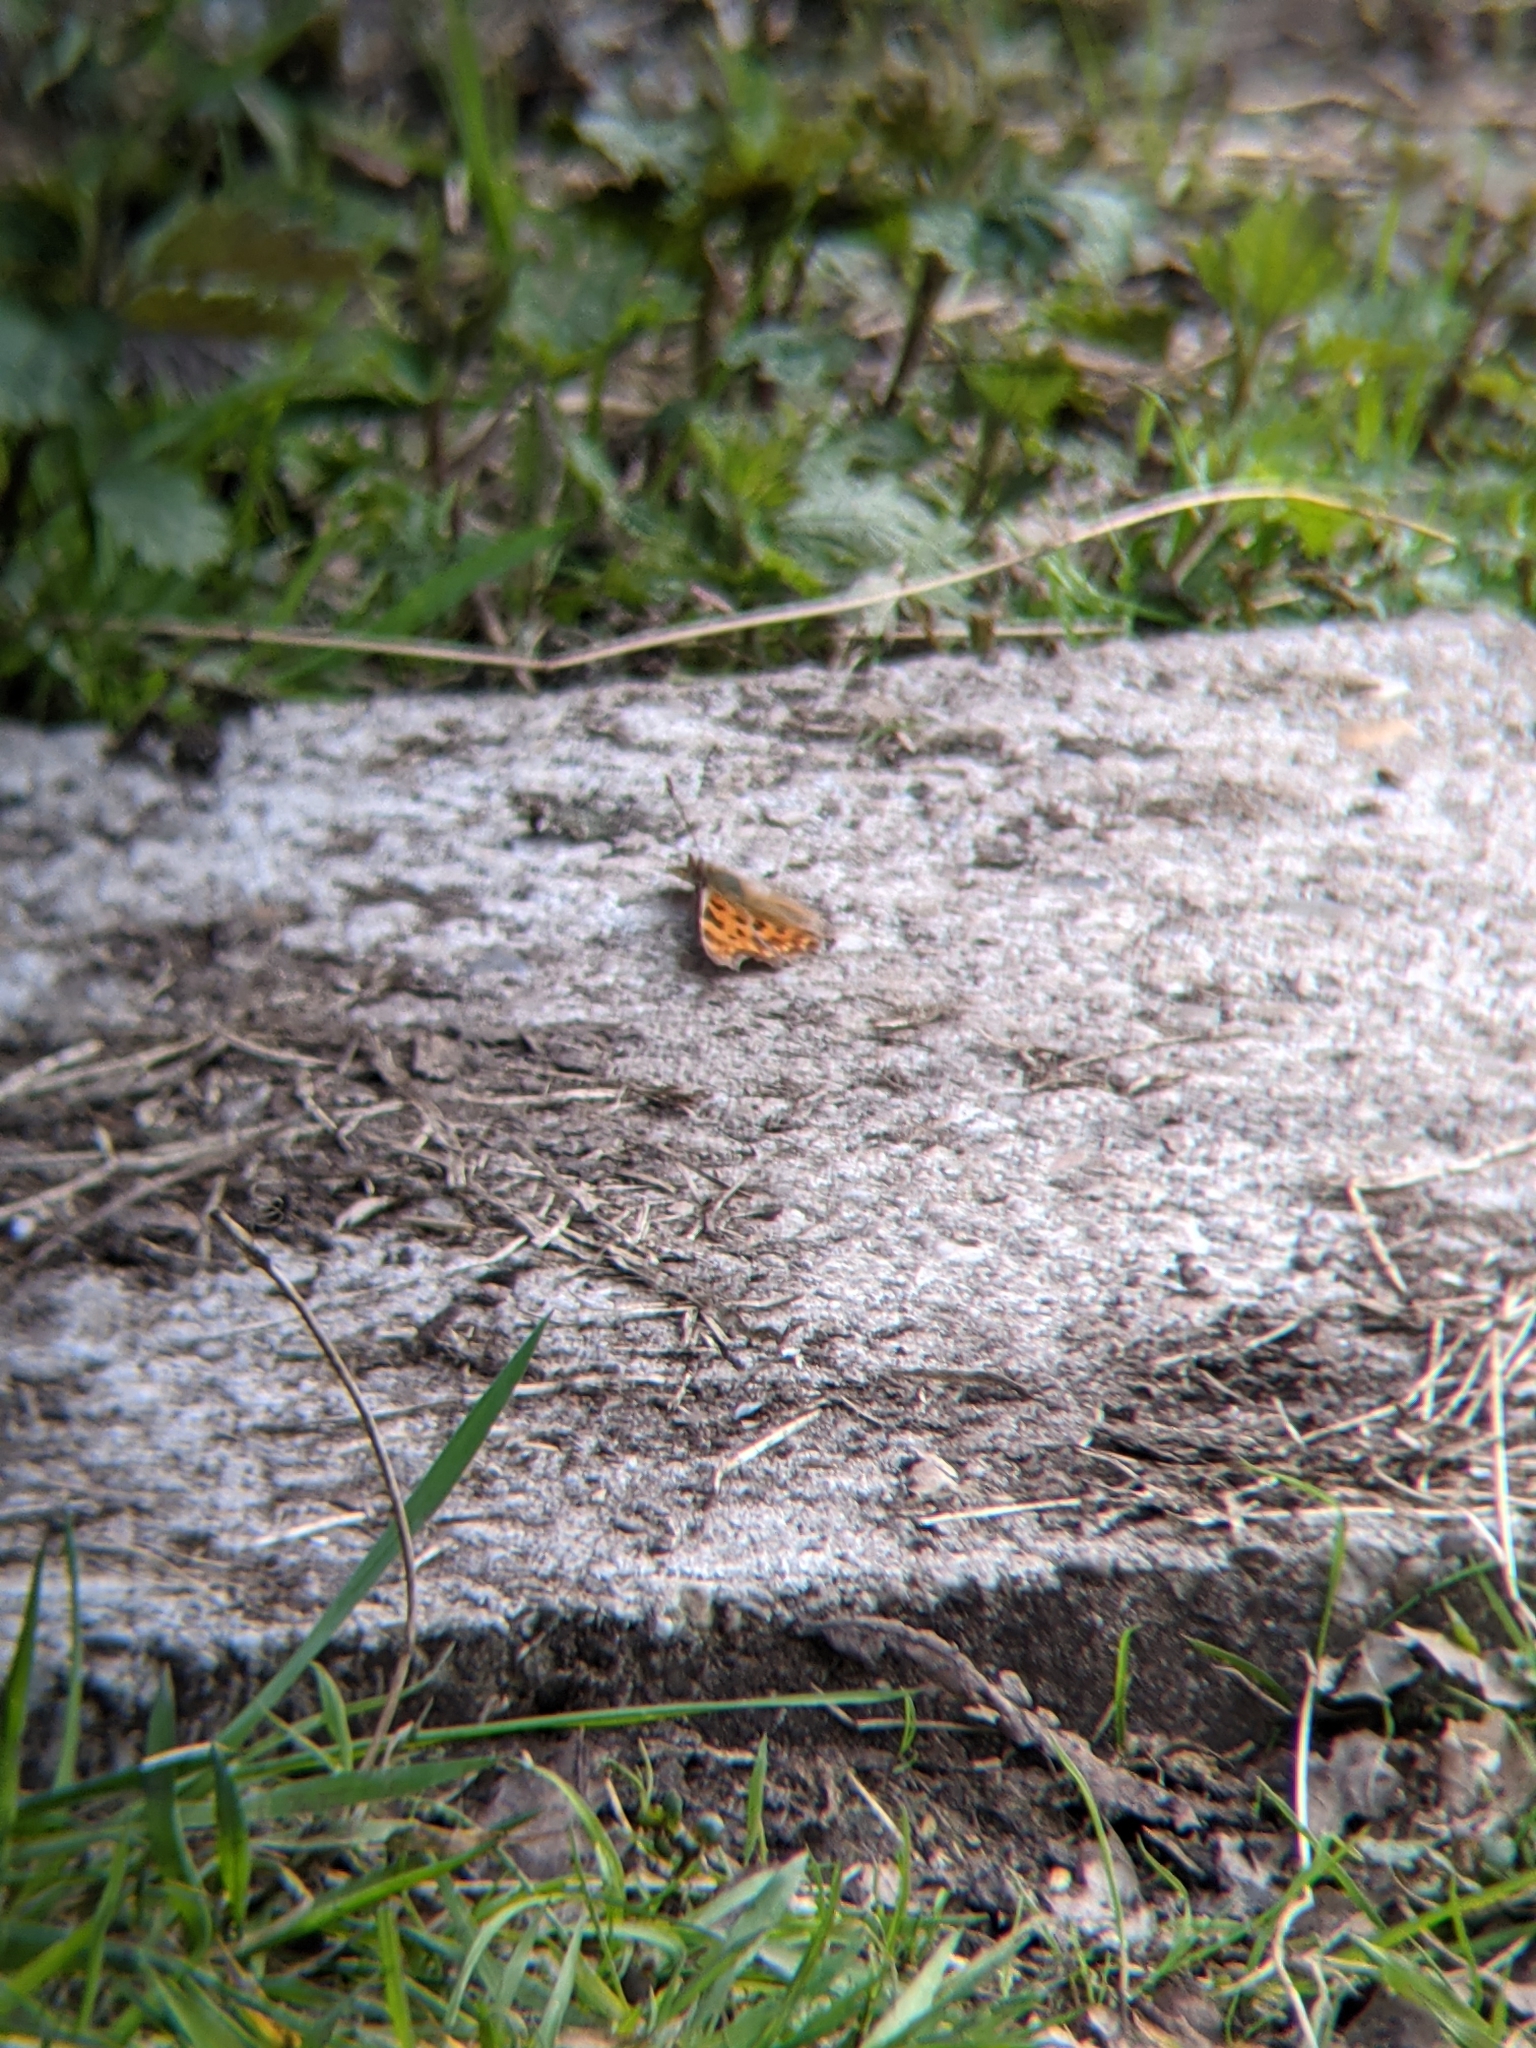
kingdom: Animalia
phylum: Arthropoda
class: Insecta
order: Lepidoptera
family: Nymphalidae
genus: Polygonia
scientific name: Polygonia c-album
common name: Comma
